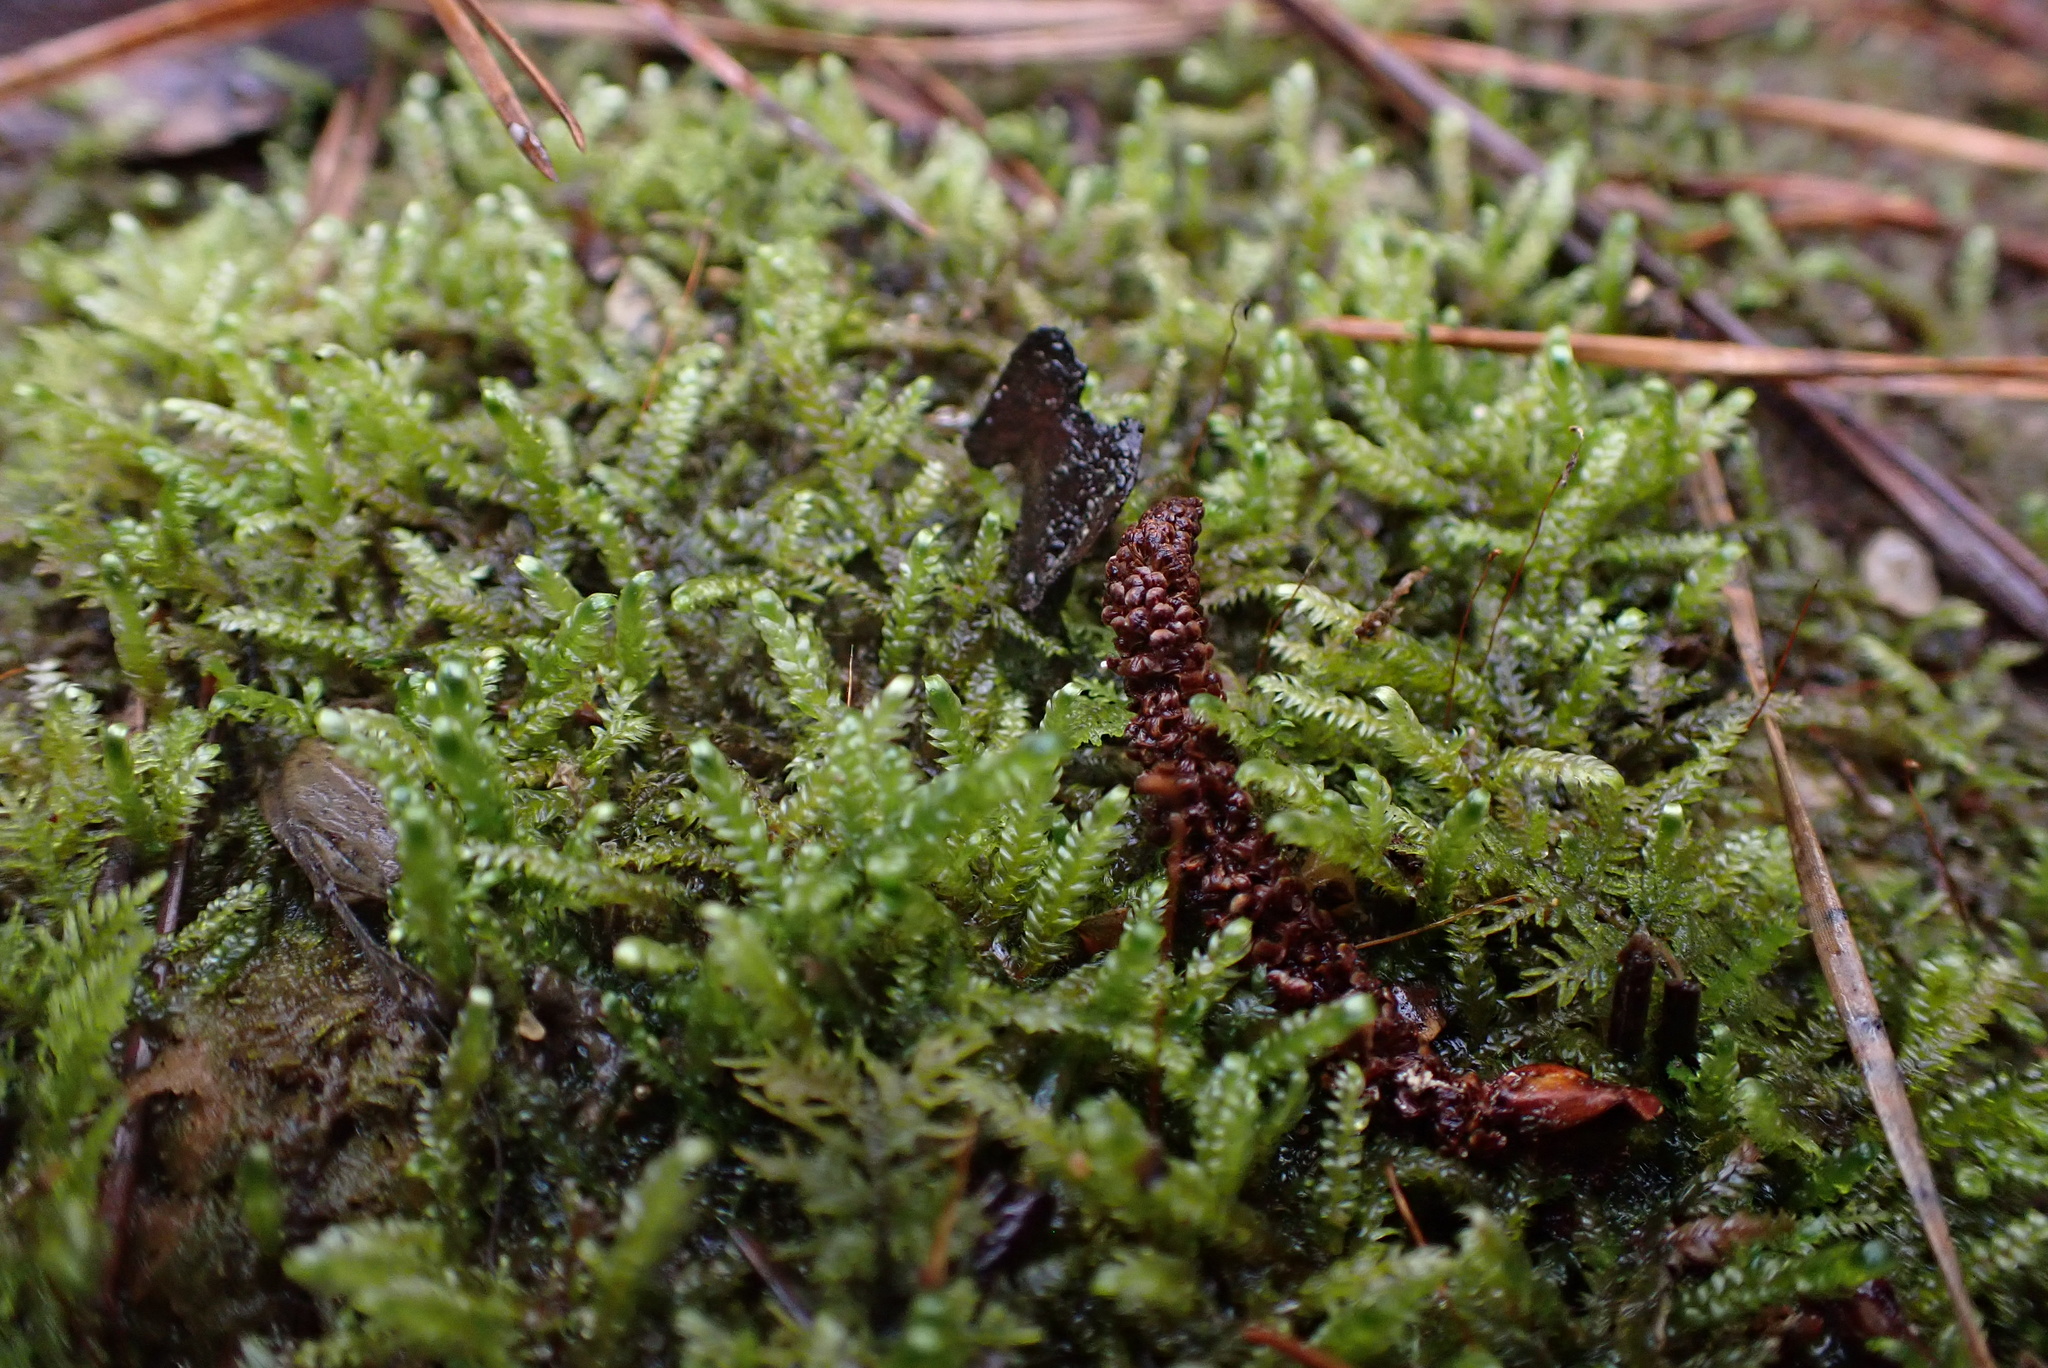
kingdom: Plantae
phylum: Bryophyta
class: Bryopsida
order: Hypnales
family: Pylaisiaceae
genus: Calliergonella
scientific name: Calliergonella lindbergii
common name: Lindberg's plait-moss
